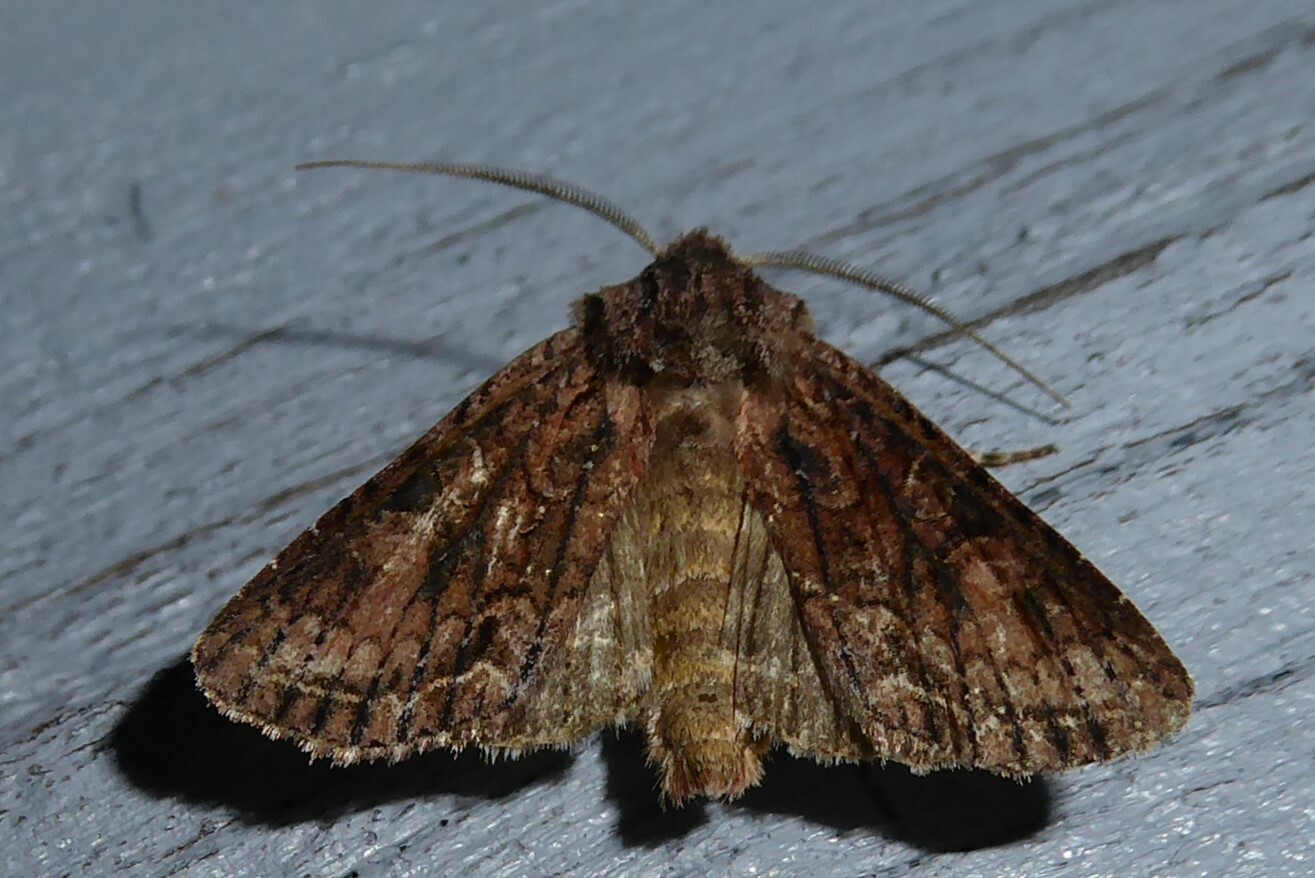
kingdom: Animalia
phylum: Arthropoda
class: Insecta
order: Lepidoptera
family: Noctuidae
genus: Ichneutica
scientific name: Ichneutica mutans
